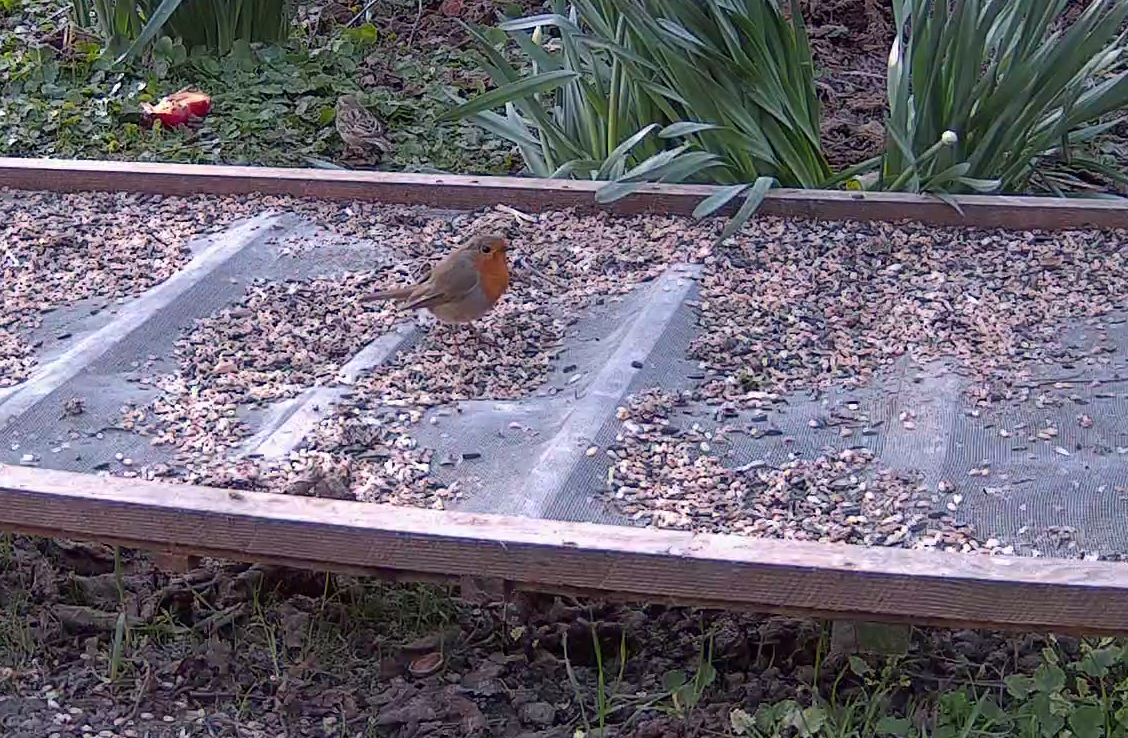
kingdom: Animalia
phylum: Chordata
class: Aves
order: Passeriformes
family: Muscicapidae
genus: Erithacus
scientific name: Erithacus rubecula
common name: European robin
